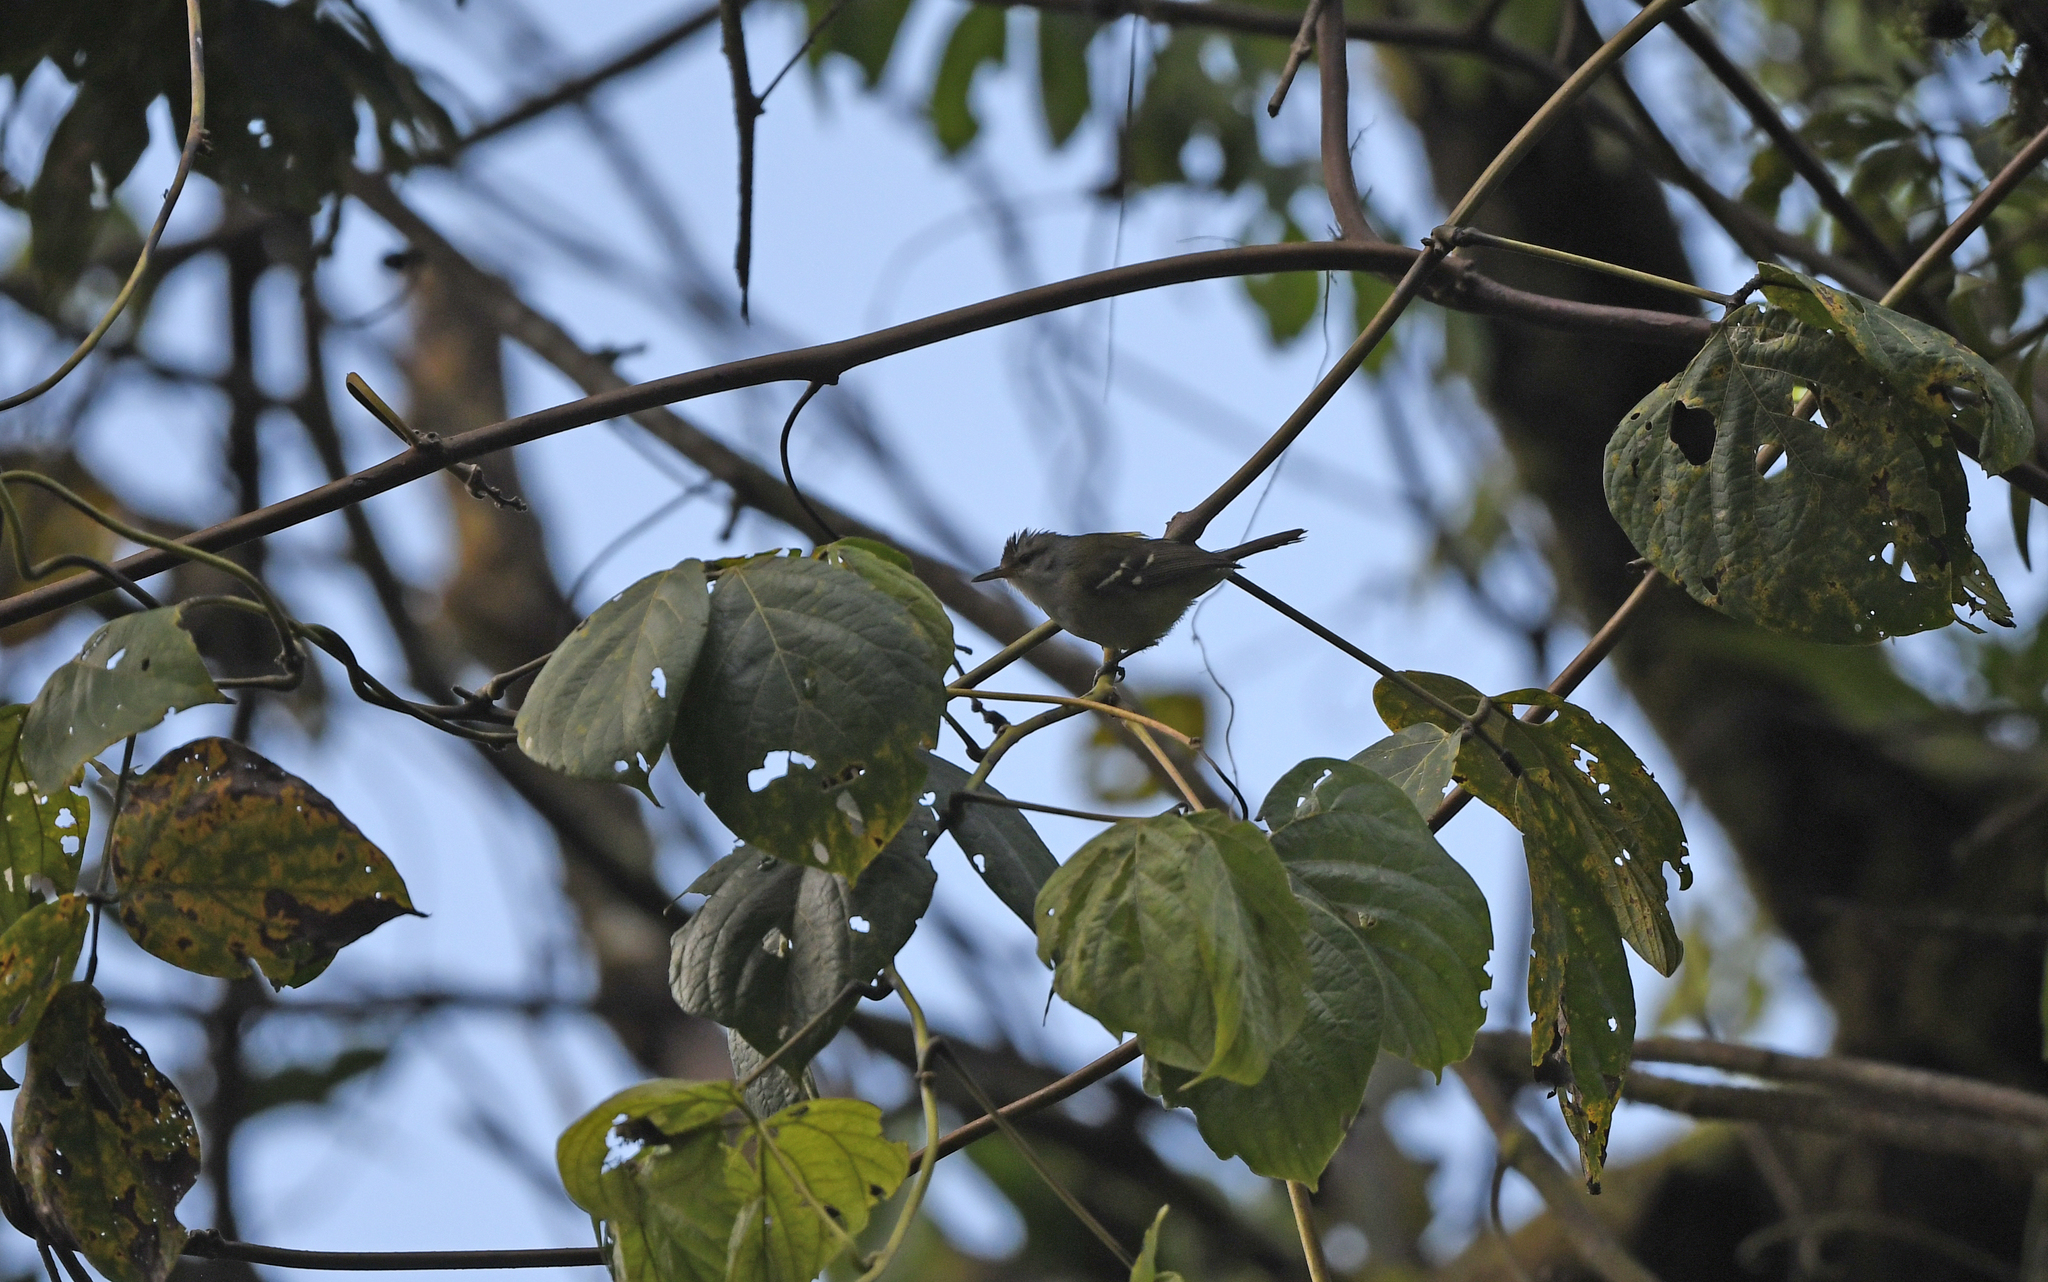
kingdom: Animalia
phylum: Chordata
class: Aves
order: Passeriformes
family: Thamnophilidae
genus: Terenura
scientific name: Terenura sharpei
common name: Yellow-rumped antwren
